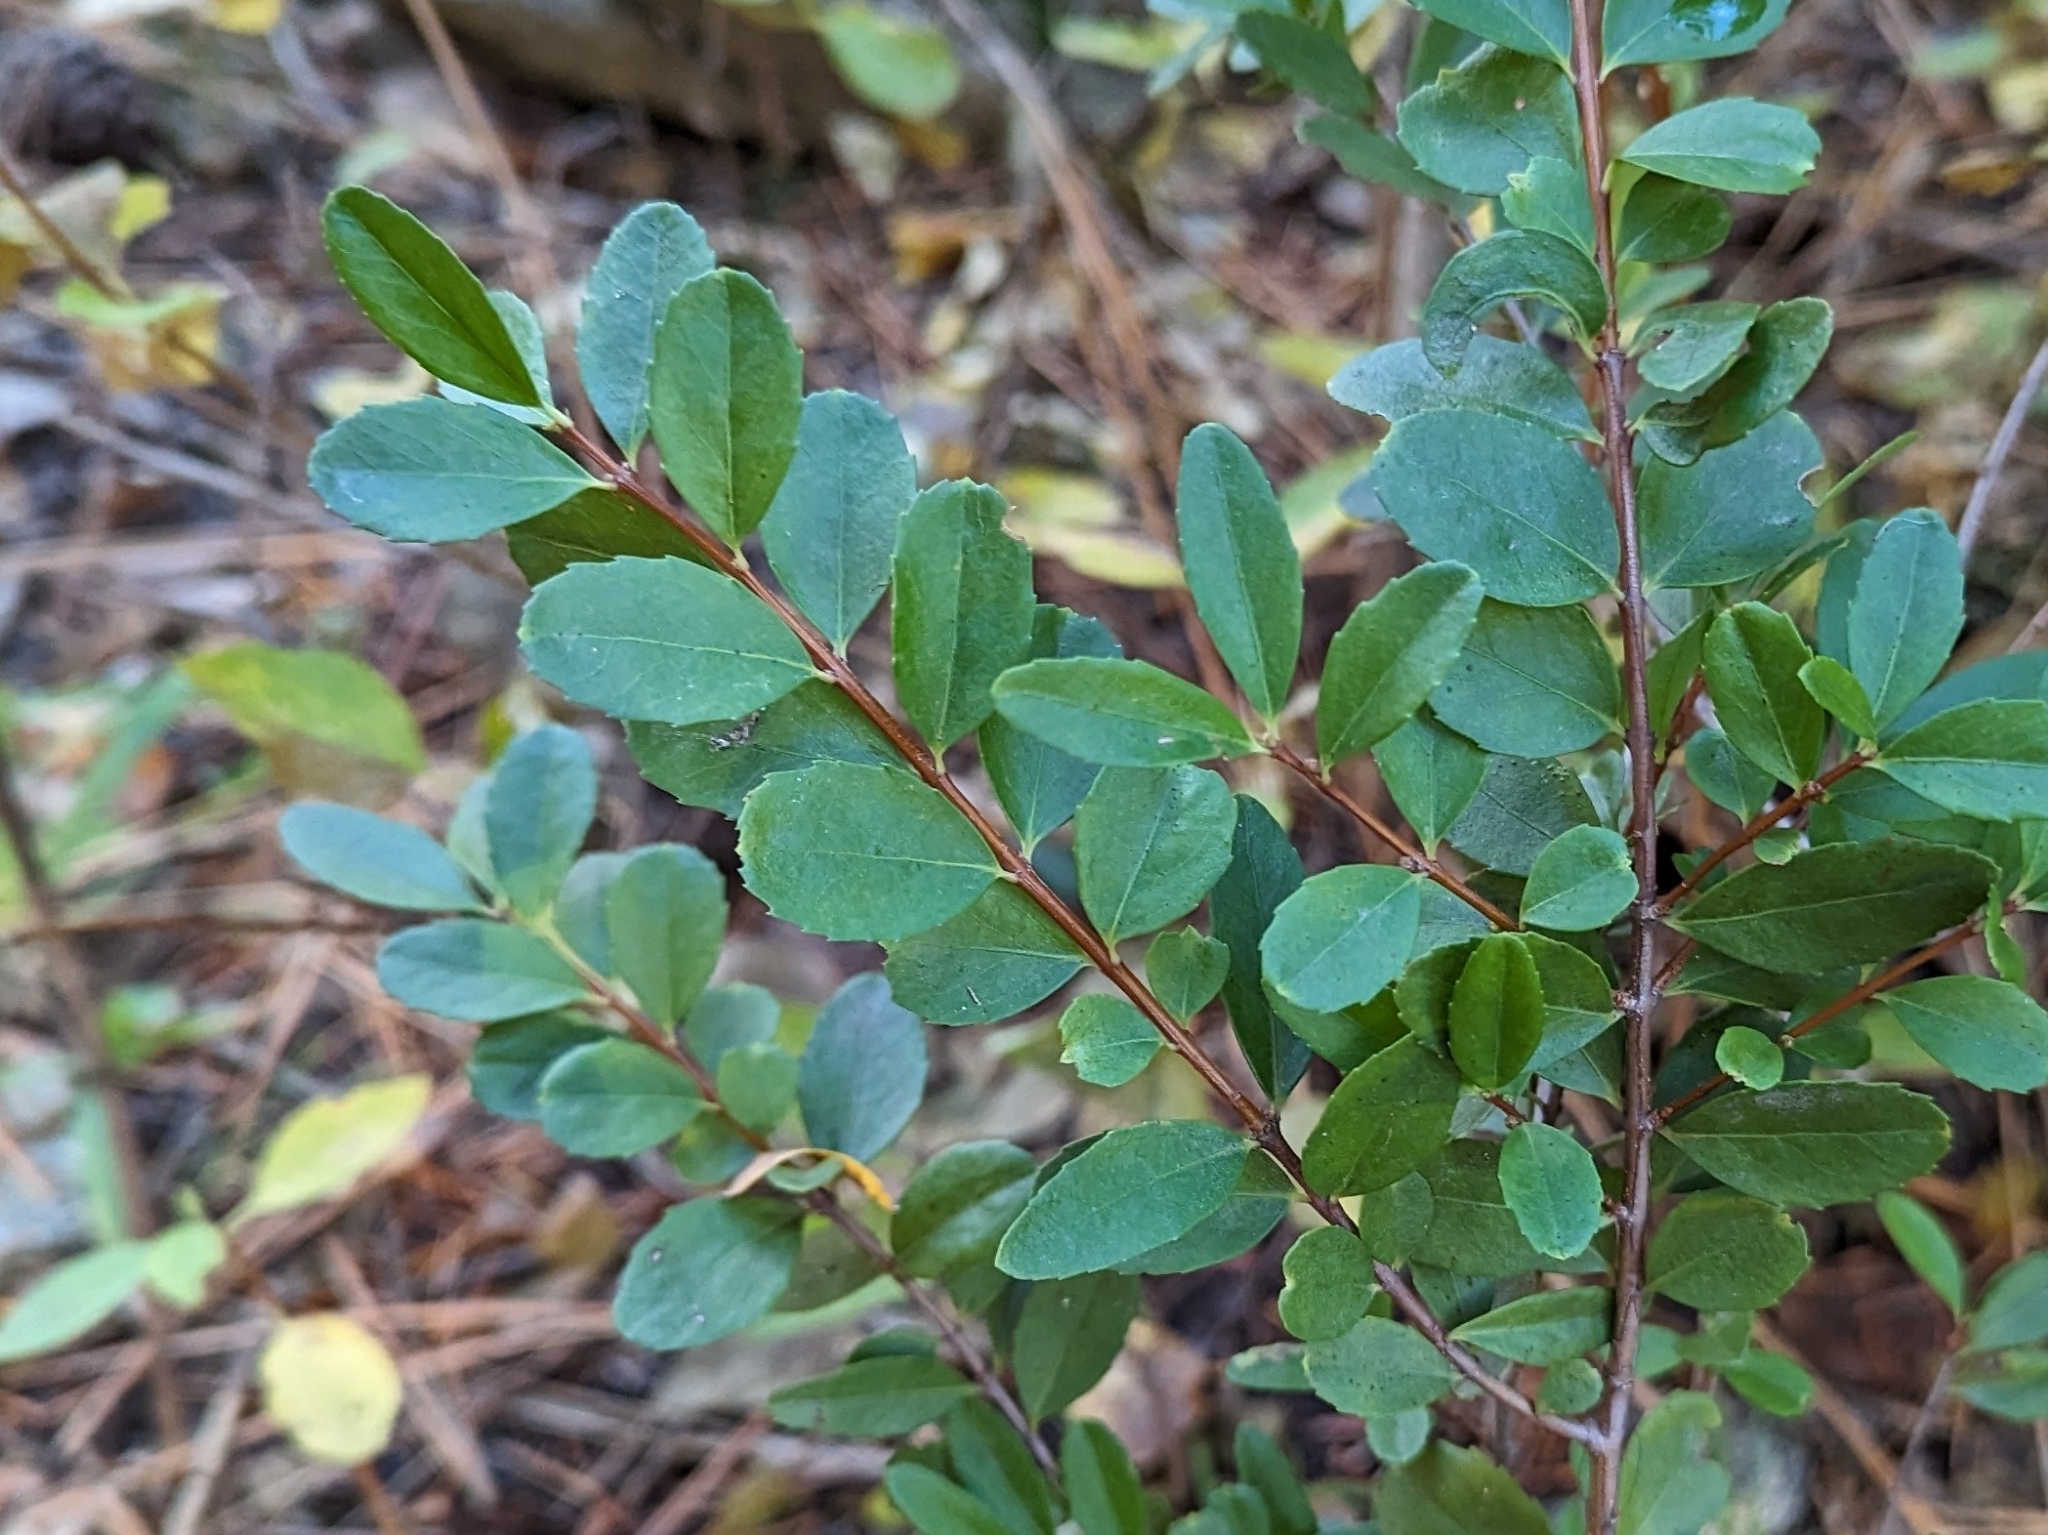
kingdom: Plantae
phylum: Tracheophyta
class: Magnoliopsida
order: Celastrales
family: Celastraceae
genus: Paxistima
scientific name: Paxistima myrsinites
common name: Mountain-lover
